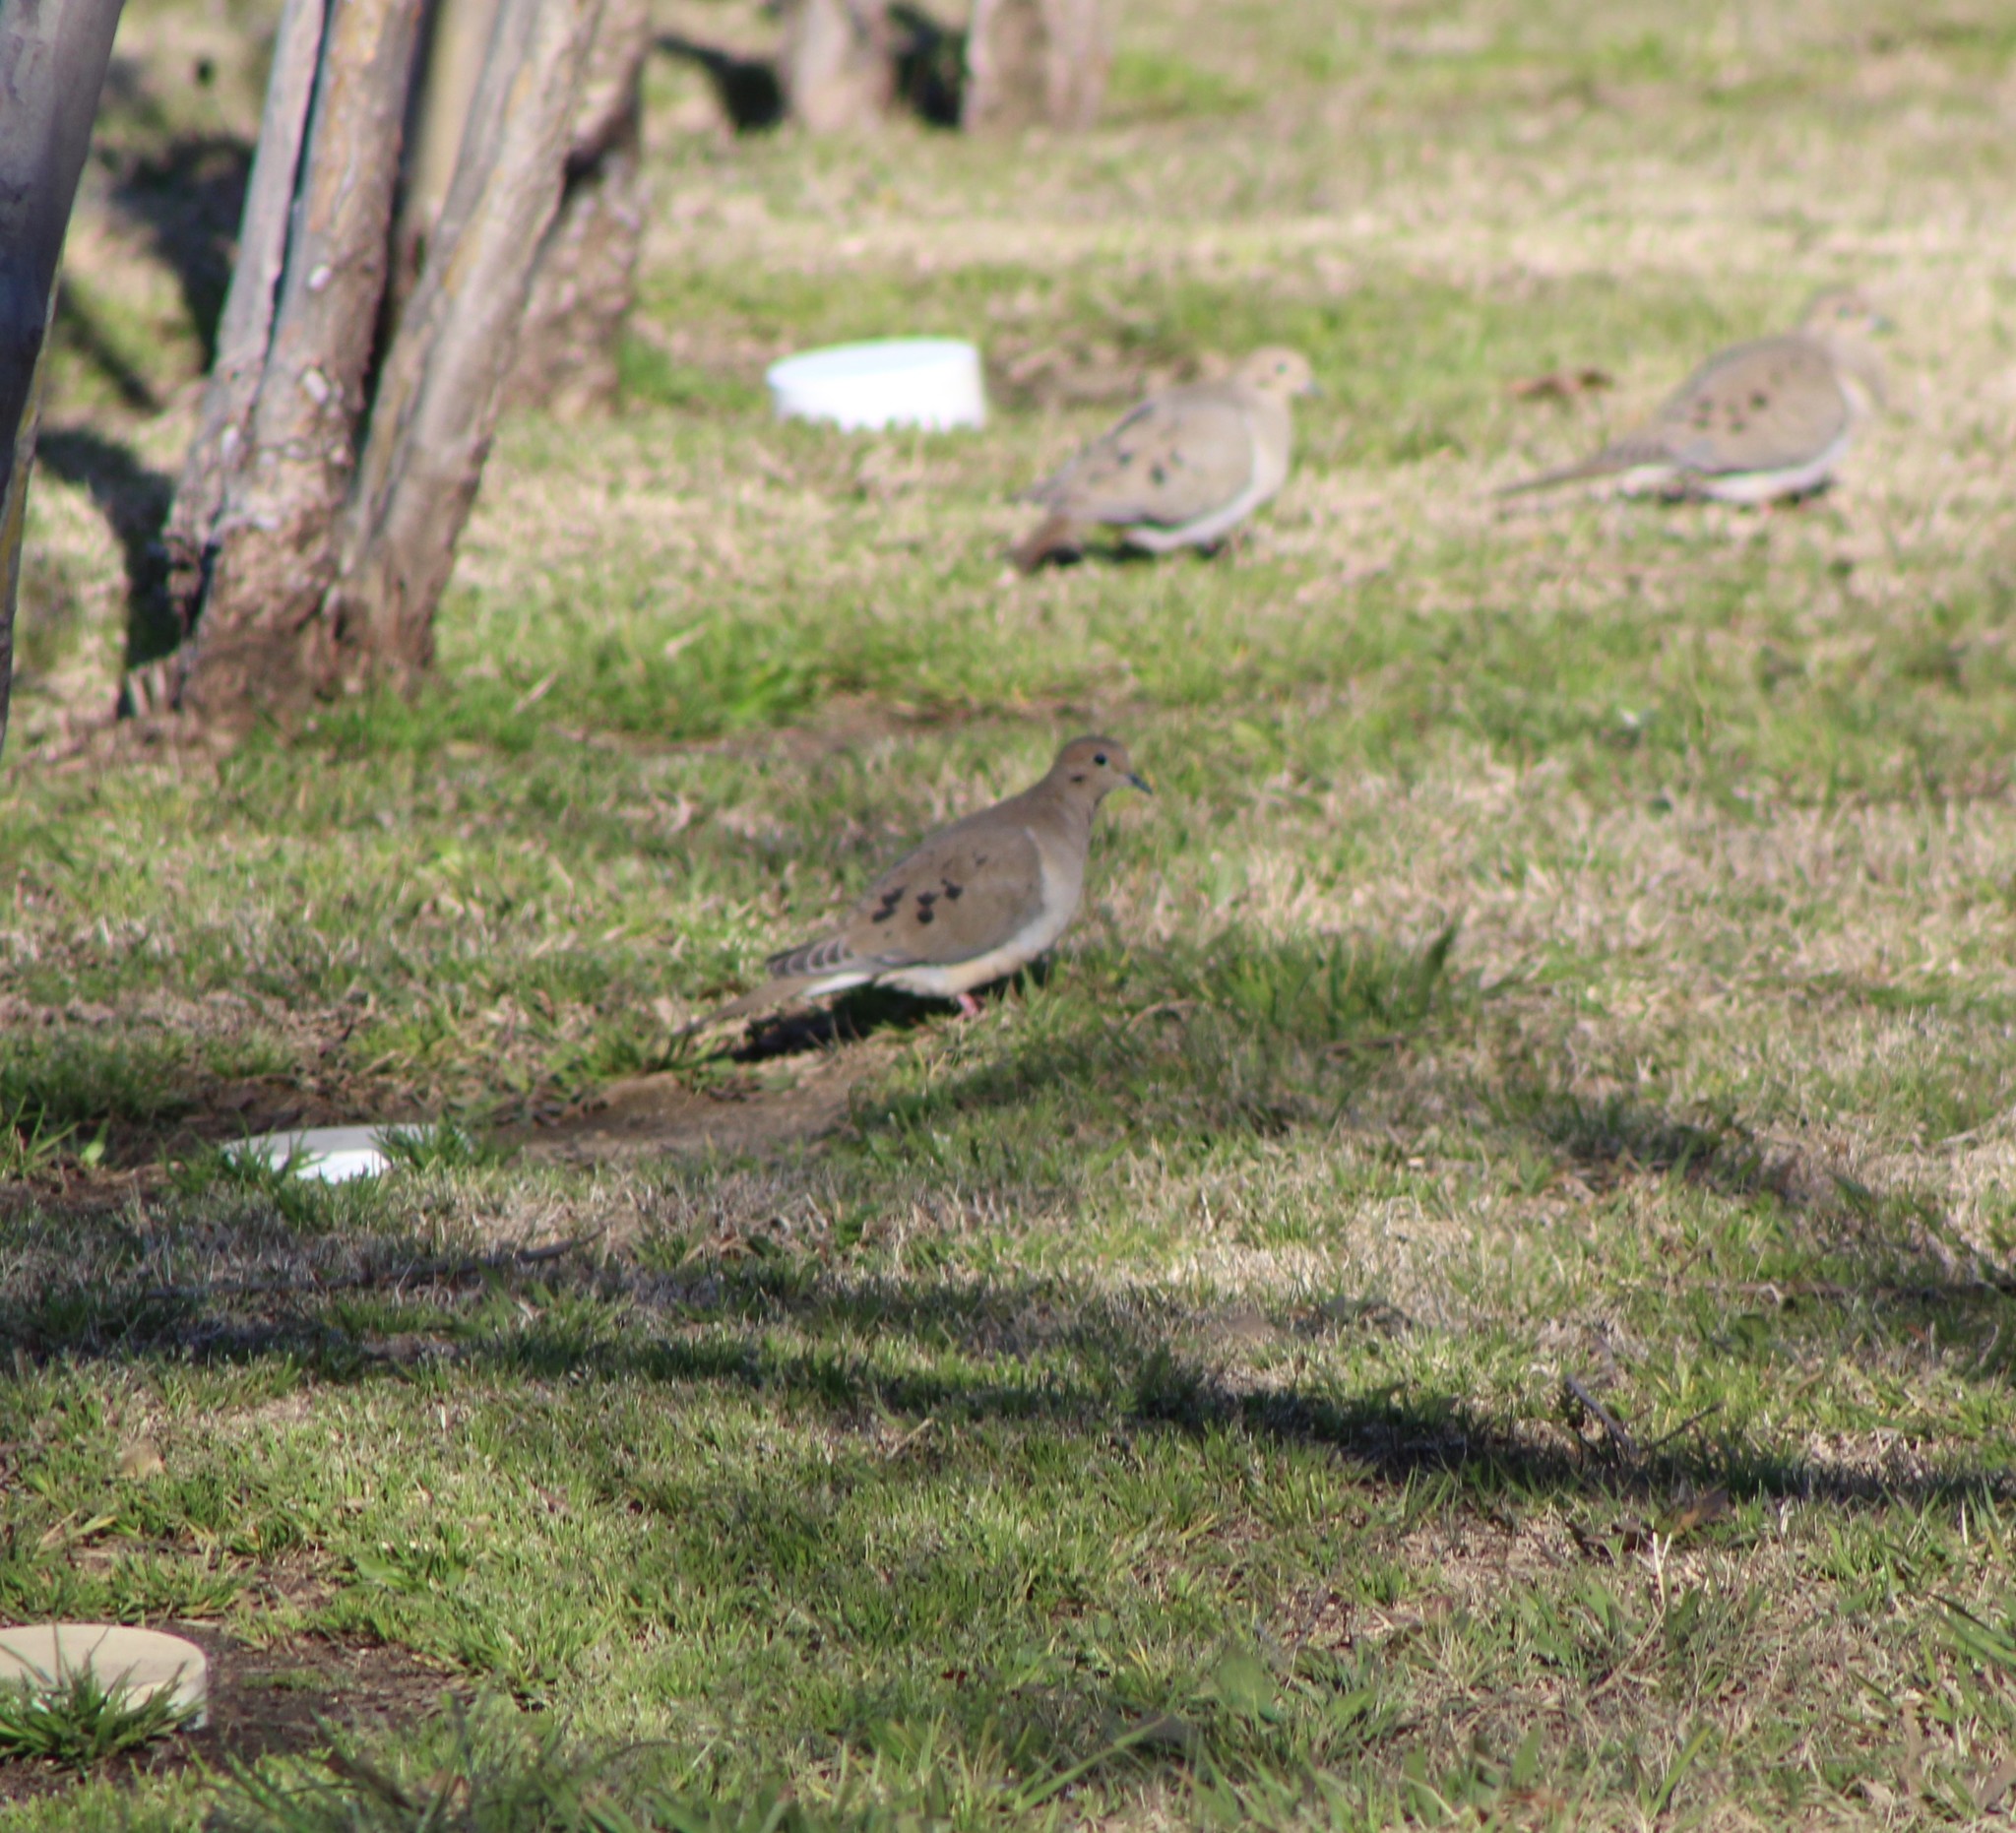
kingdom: Animalia
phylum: Chordata
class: Aves
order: Columbiformes
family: Columbidae
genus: Zenaida
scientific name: Zenaida macroura
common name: Mourning dove
